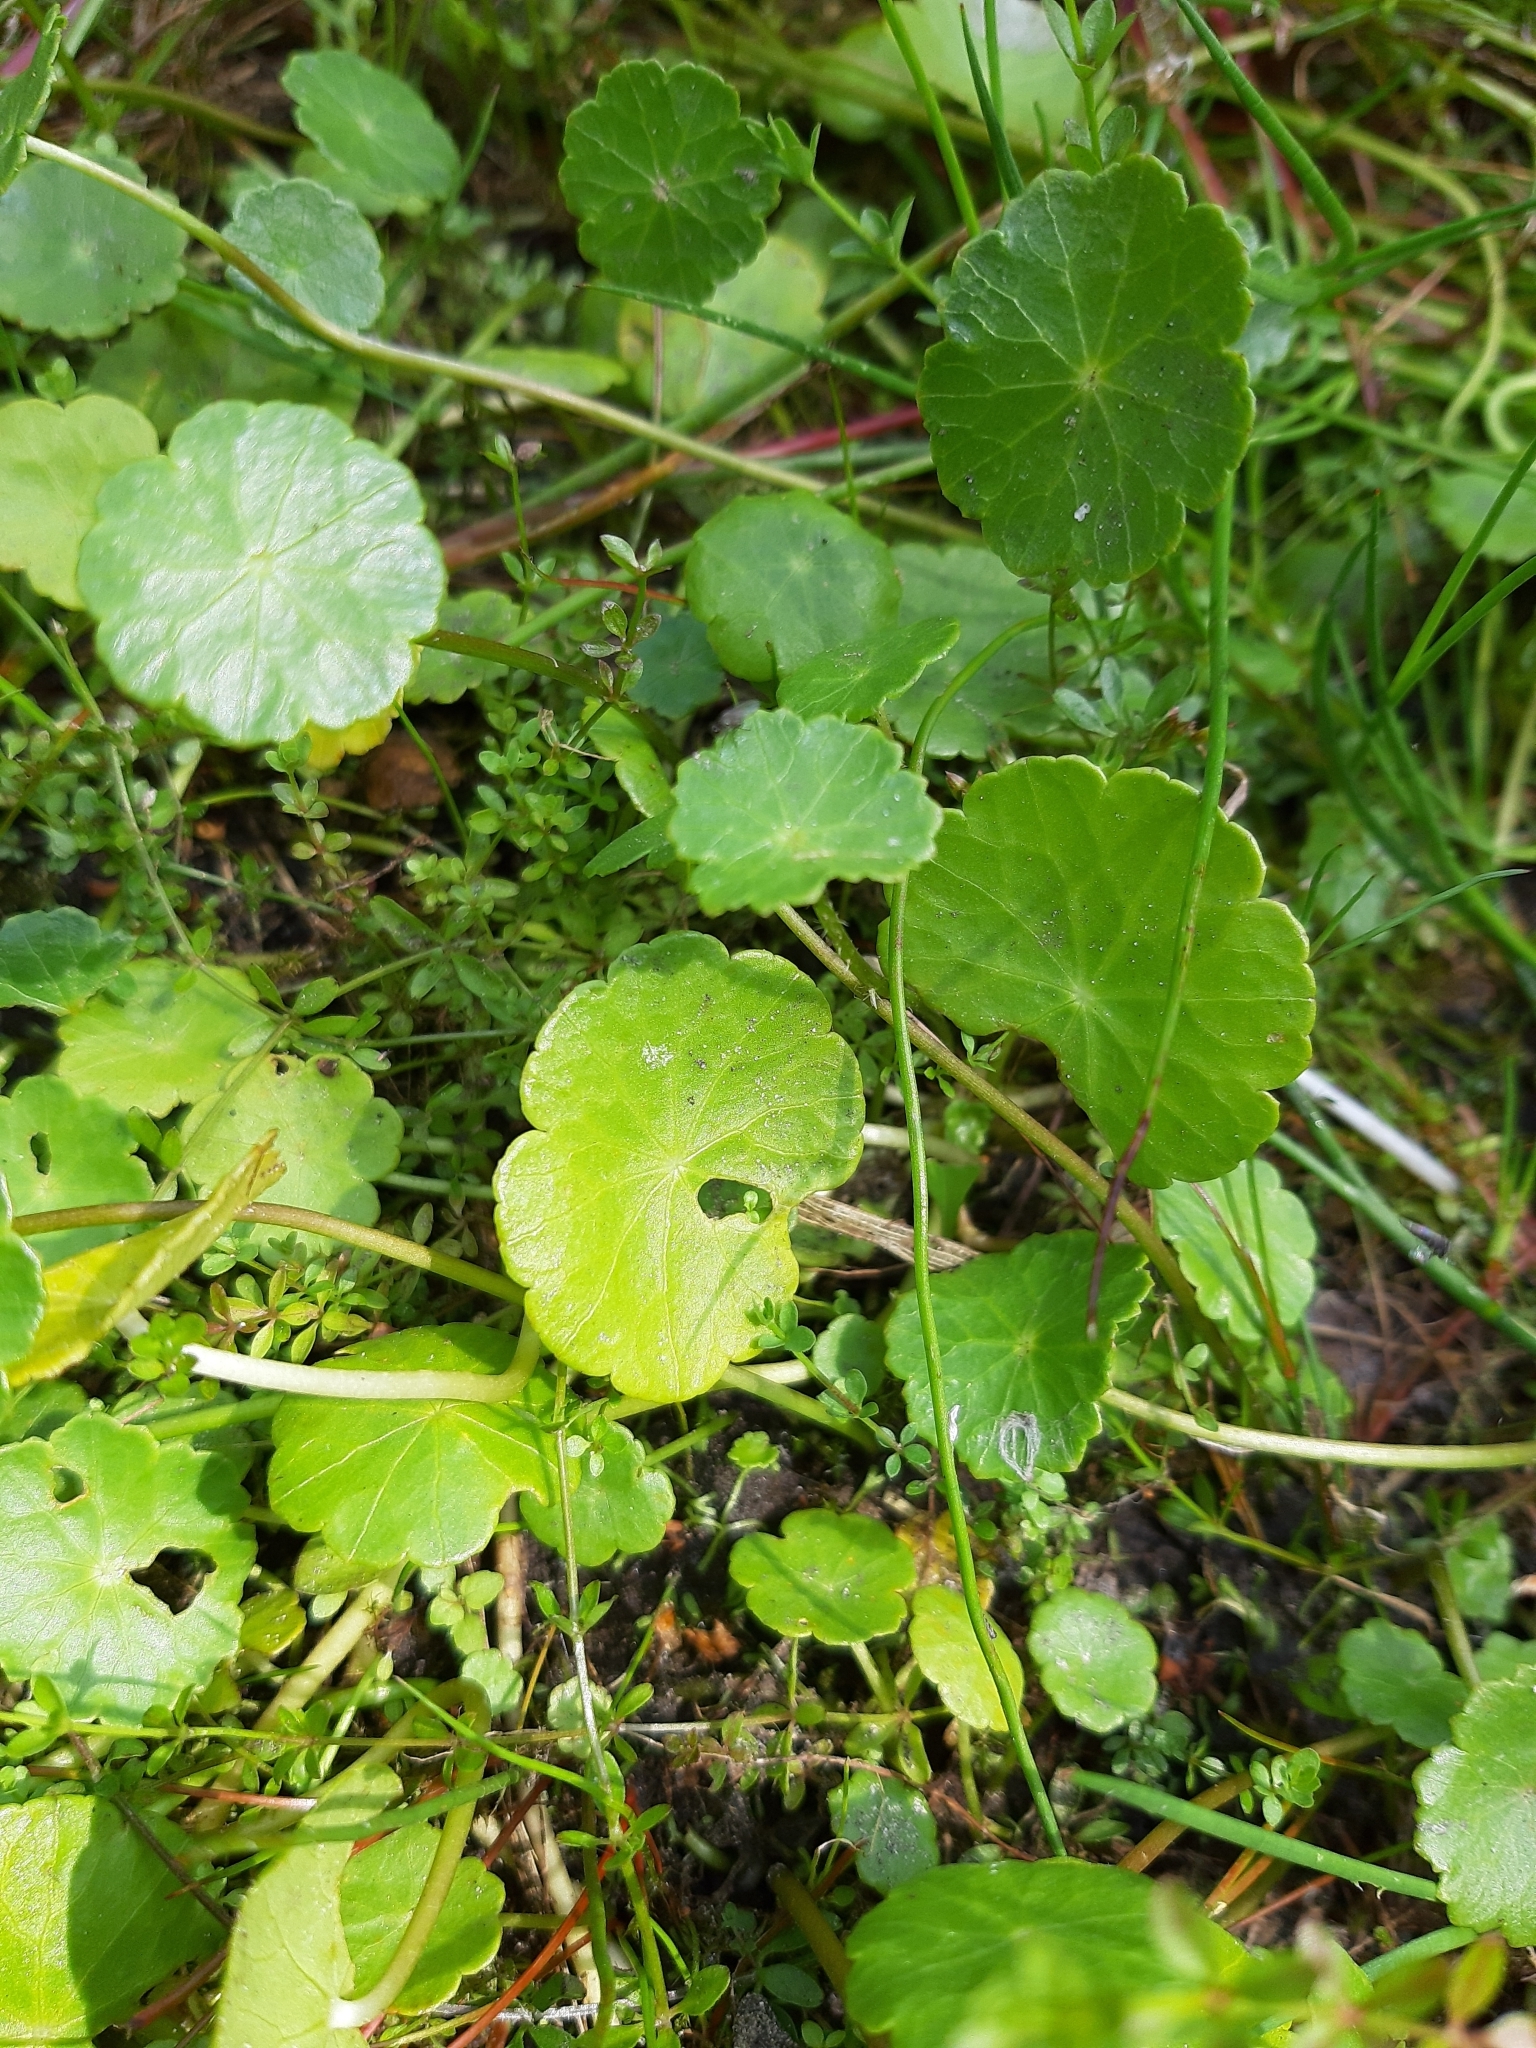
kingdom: Plantae
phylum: Tracheophyta
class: Magnoliopsida
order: Apiales
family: Araliaceae
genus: Hydrocotyle
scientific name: Hydrocotyle vulgaris
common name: Marsh pennywort
